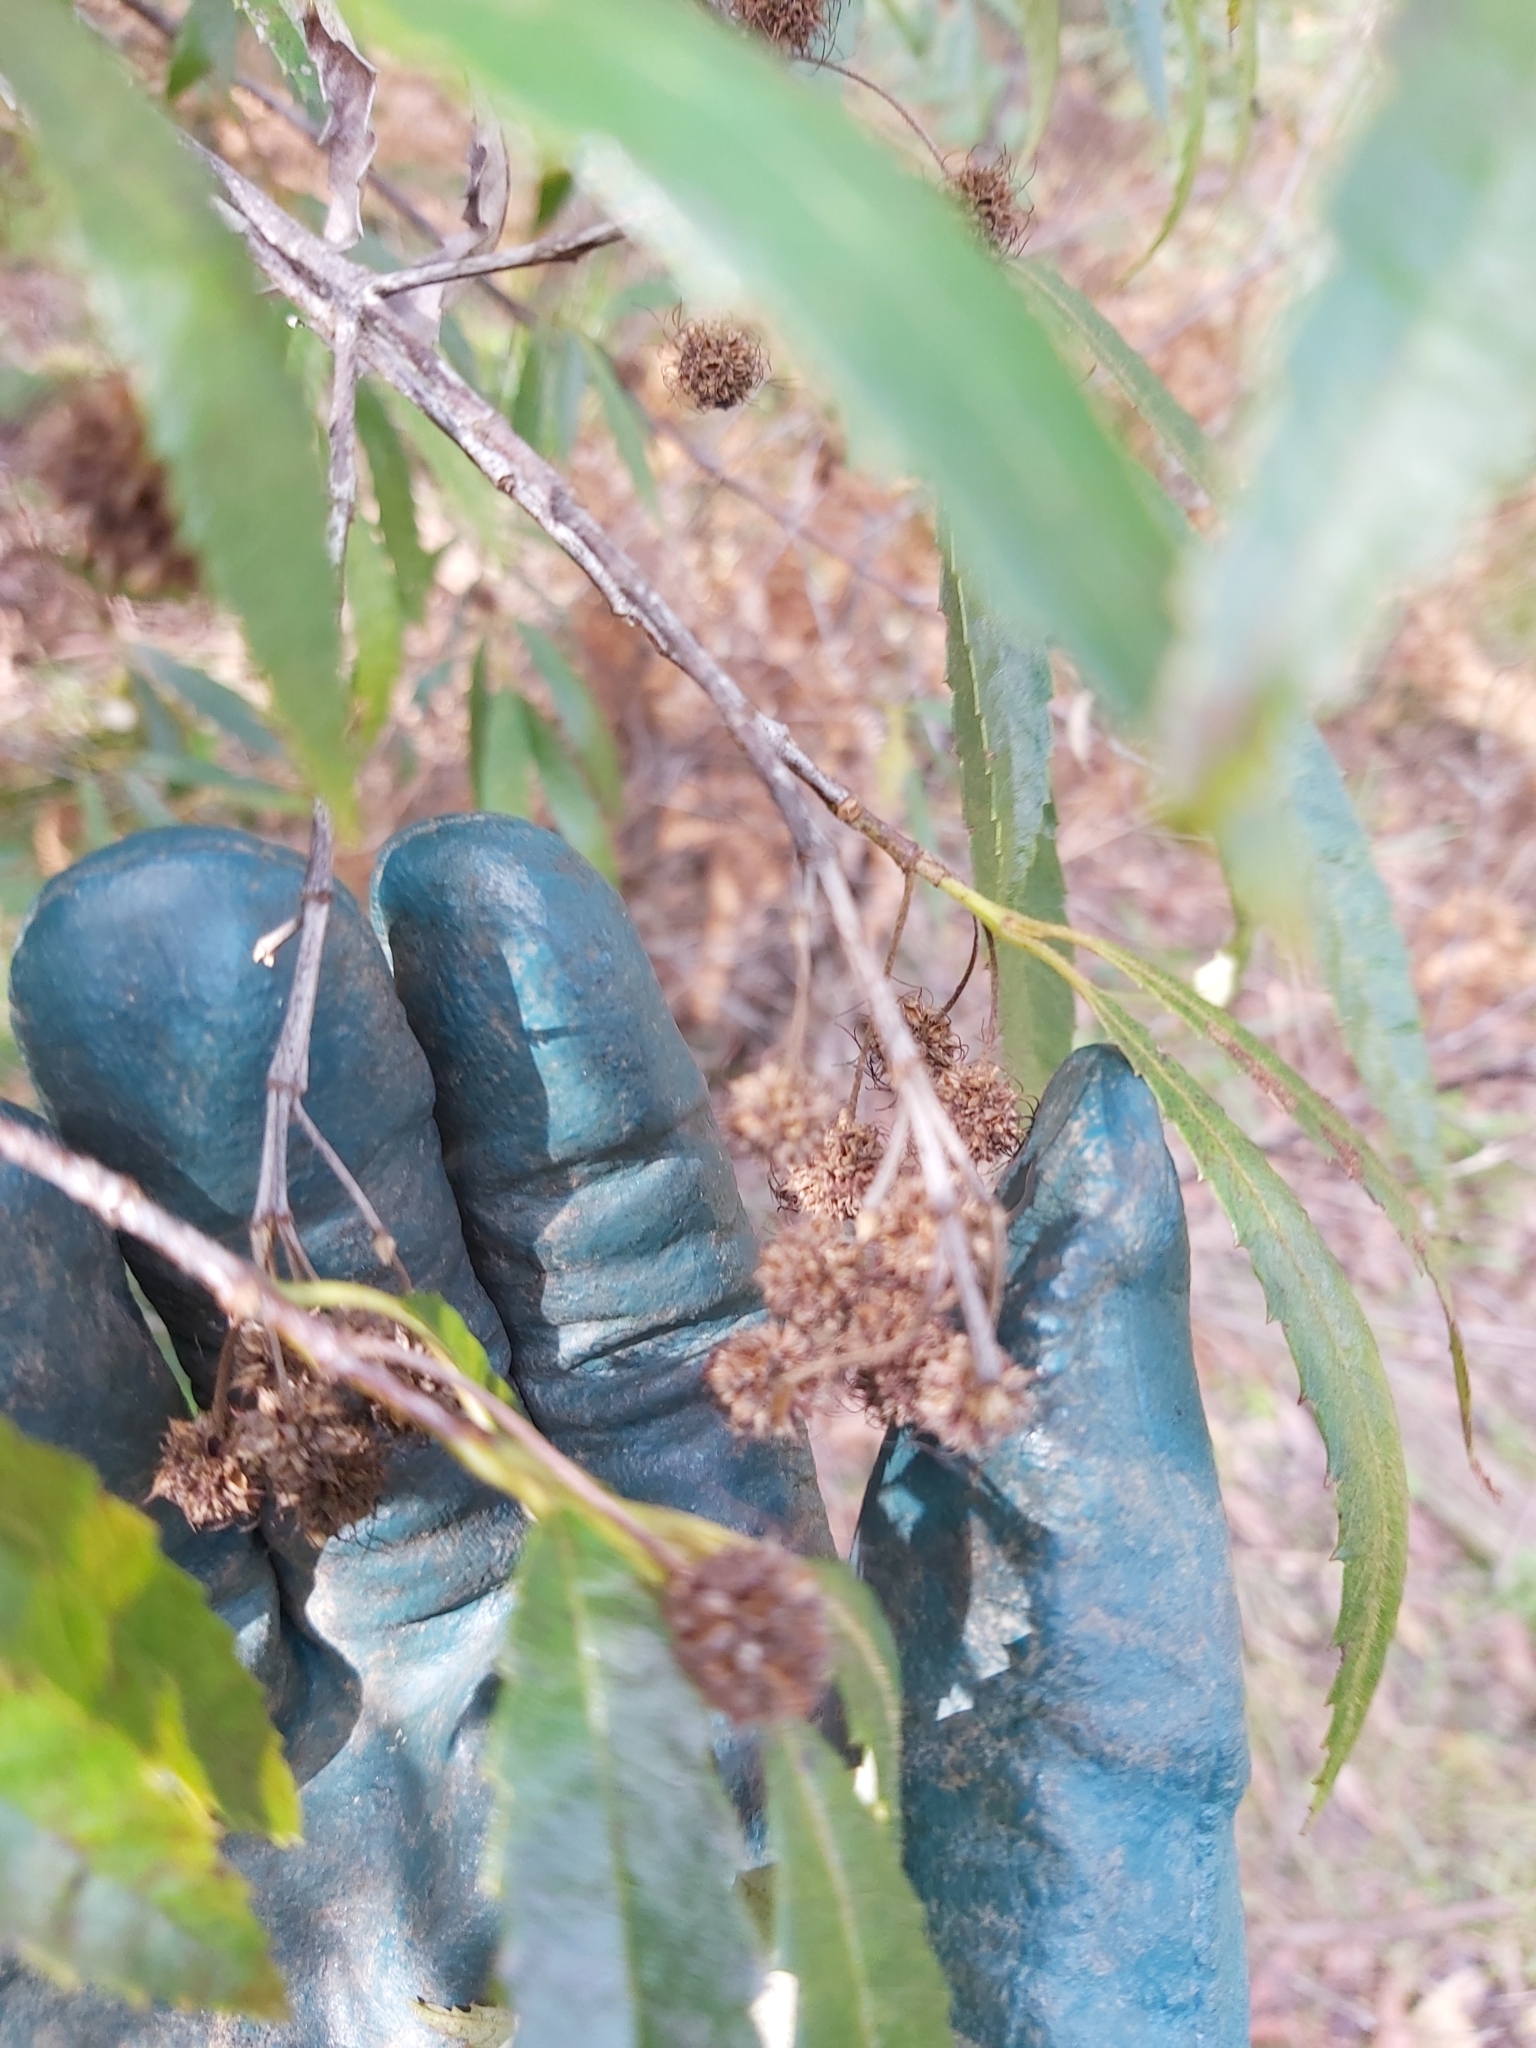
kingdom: Plantae
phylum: Tracheophyta
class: Magnoliopsida
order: Oxalidales
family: Cunoniaceae
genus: Callicoma
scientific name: Callicoma serratifolia
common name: Black wattle
